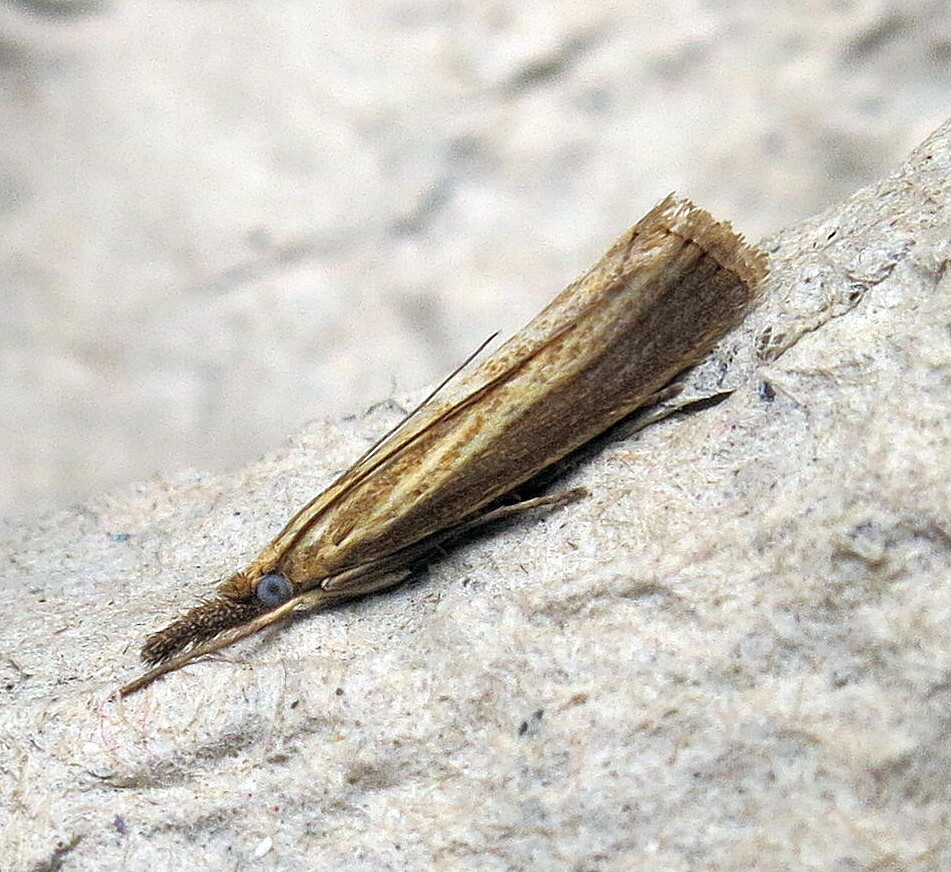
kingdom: Animalia
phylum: Arthropoda
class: Insecta
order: Lepidoptera
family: Crambidae
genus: Agriphila
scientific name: Agriphila straminella
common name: Straw grass-veneer
